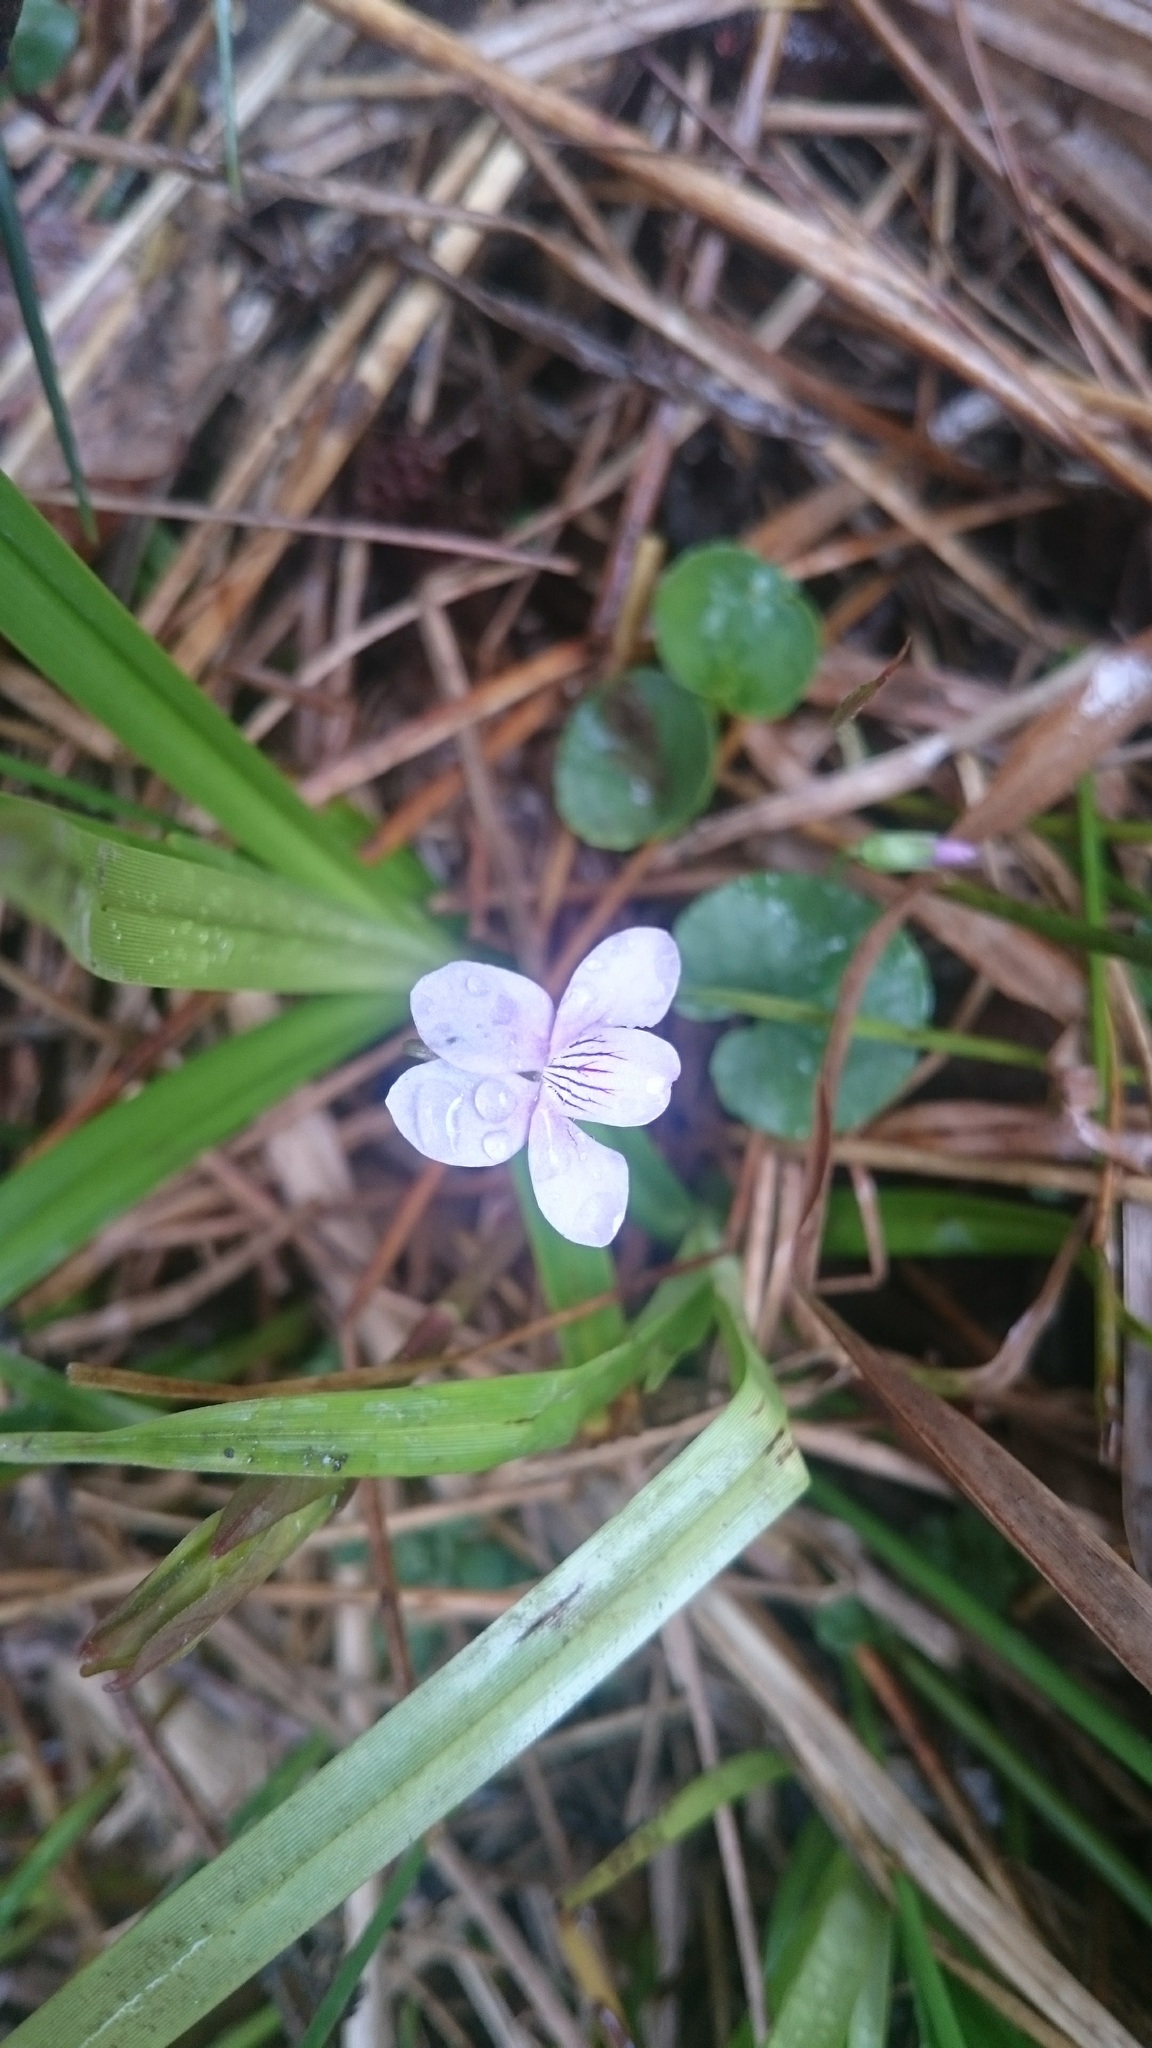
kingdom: Plantae
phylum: Tracheophyta
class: Magnoliopsida
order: Malpighiales
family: Violaceae
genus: Viola
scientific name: Viola palustris
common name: Marsh violet
